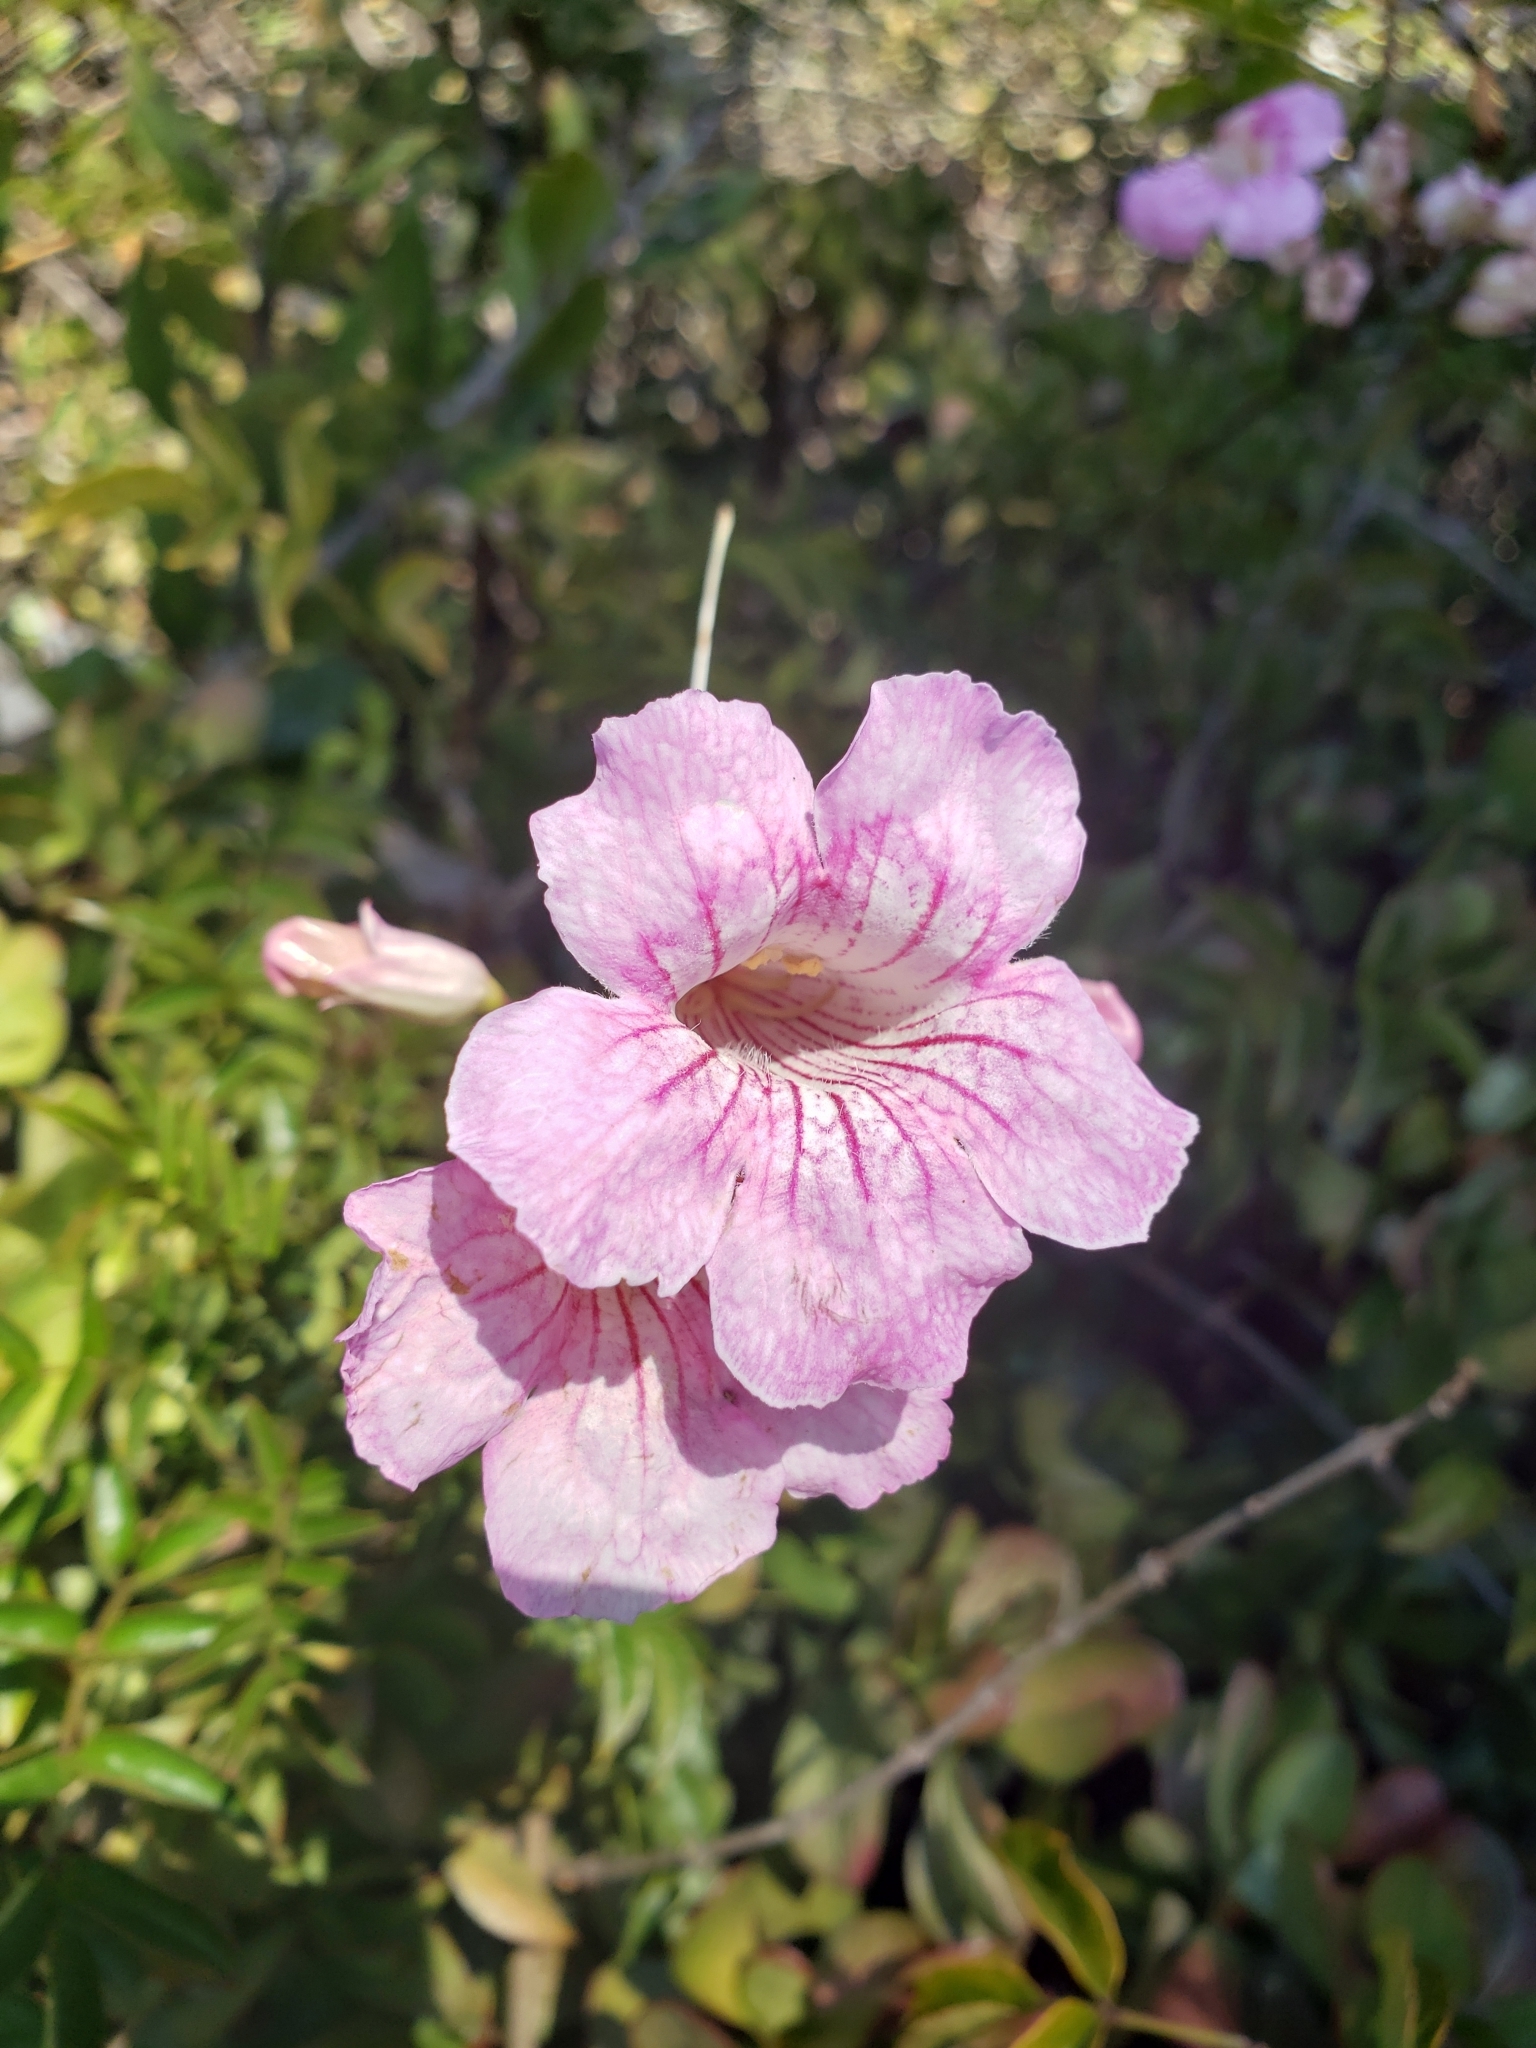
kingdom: Plantae
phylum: Tracheophyta
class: Magnoliopsida
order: Lamiales
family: Bignoniaceae
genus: Podranea
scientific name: Podranea ricasoliana
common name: Zimbabwe creeper
